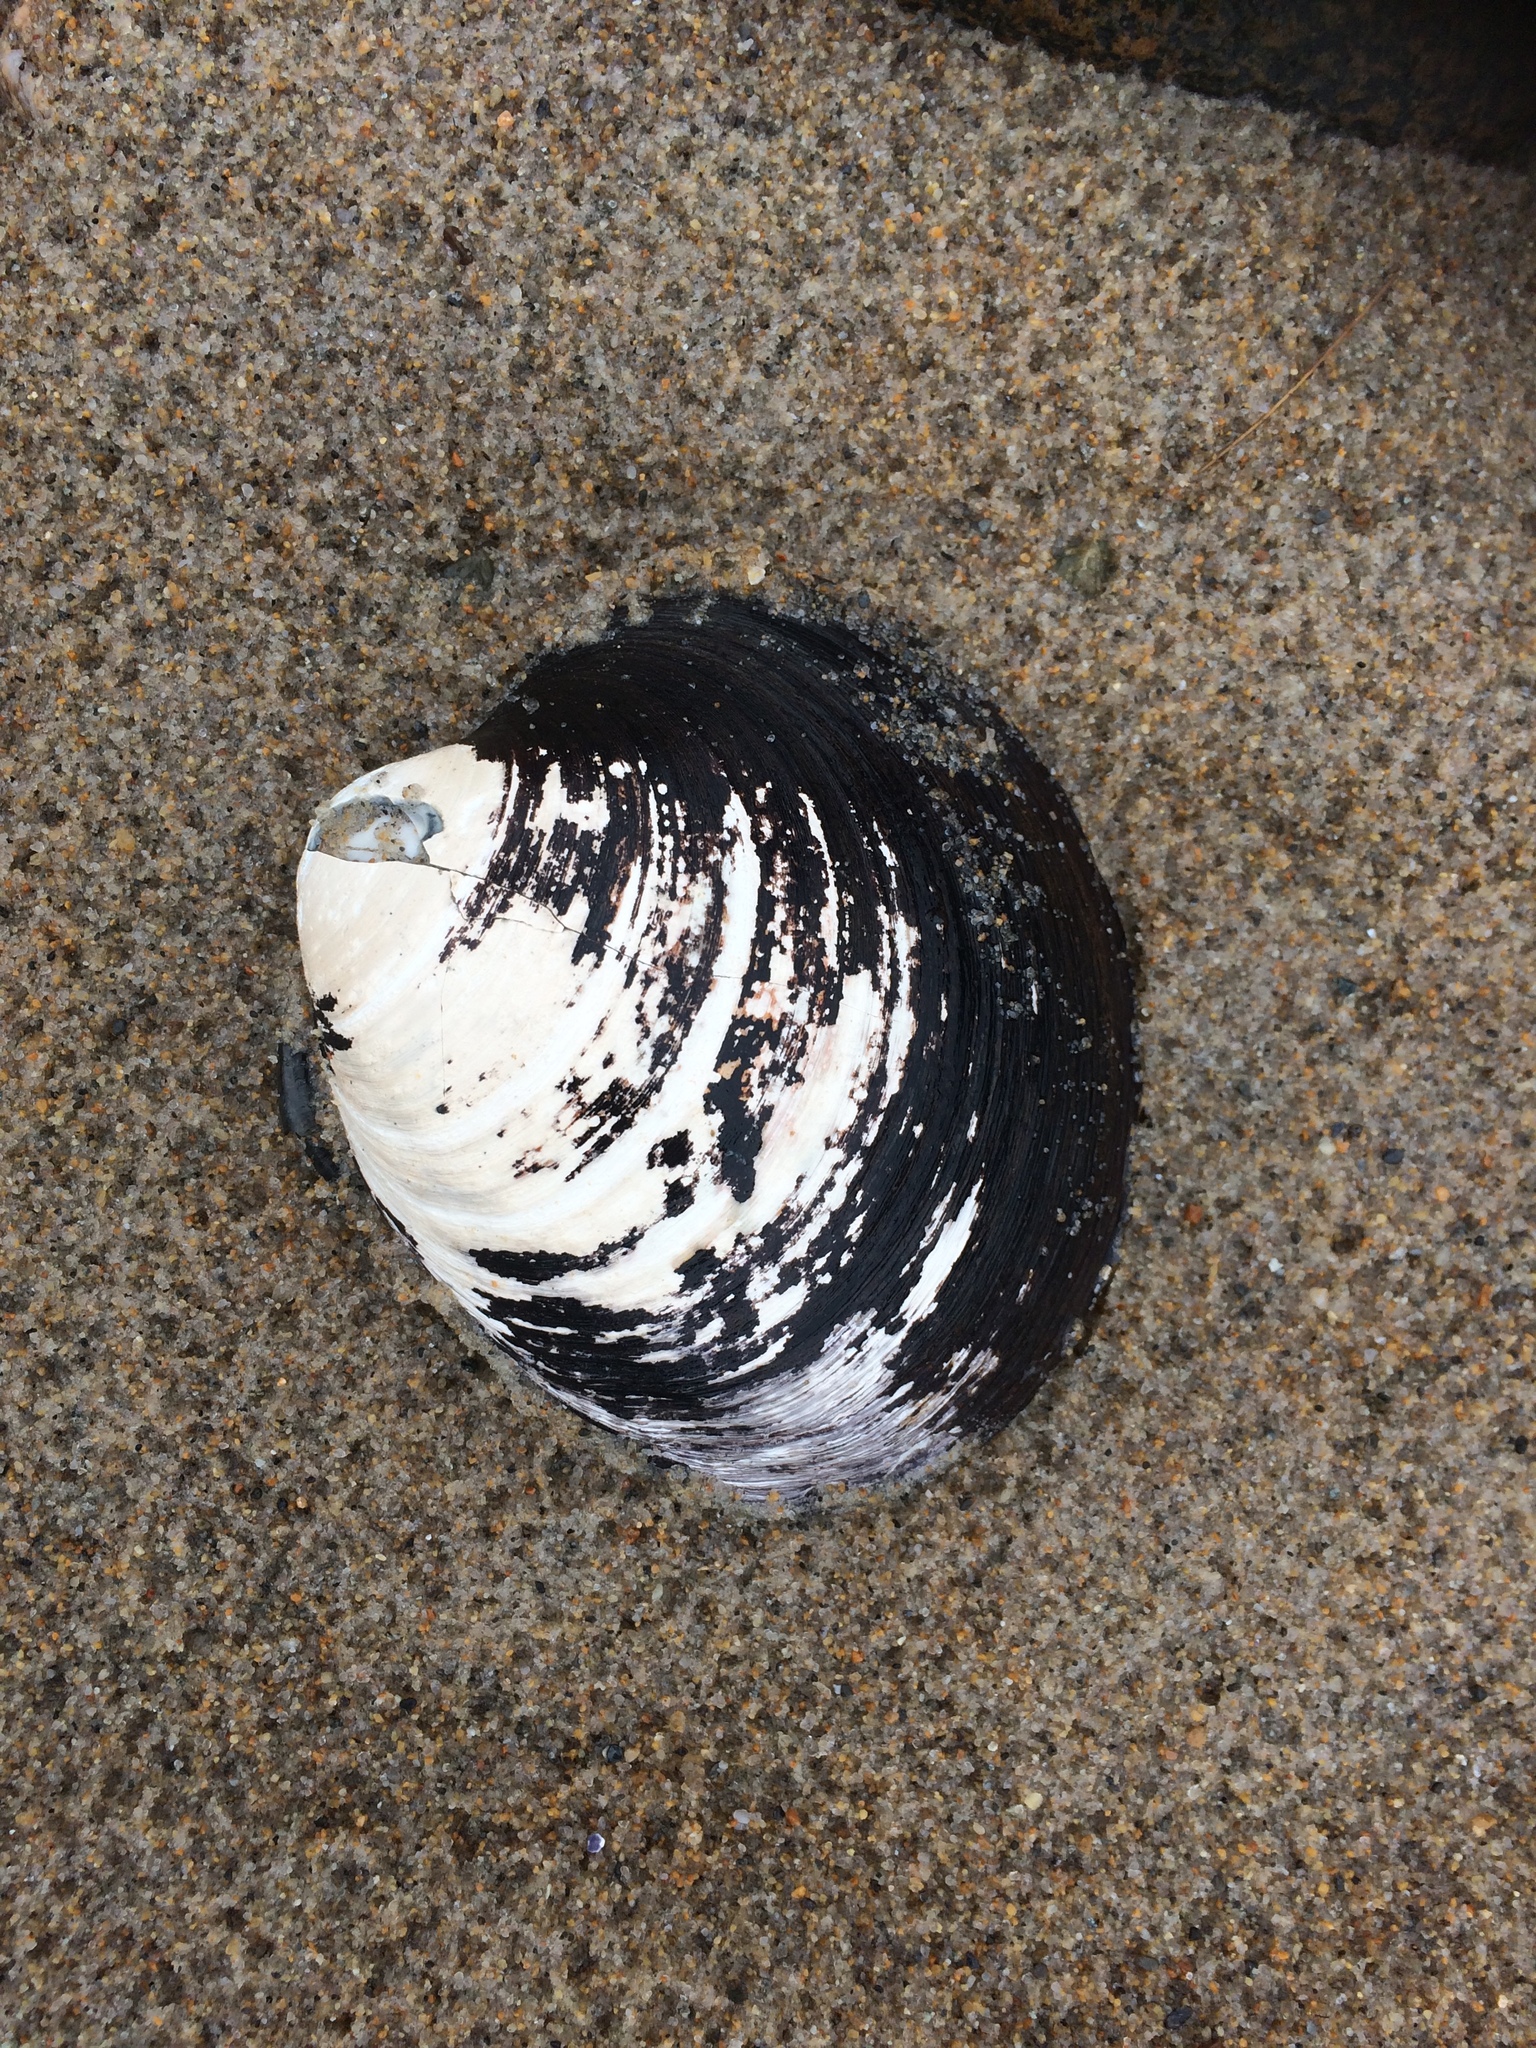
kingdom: Animalia
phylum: Mollusca
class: Bivalvia
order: Venerida
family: Arcticidae
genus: Arctica
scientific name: Arctica islandica
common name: Icelandic cyprine
